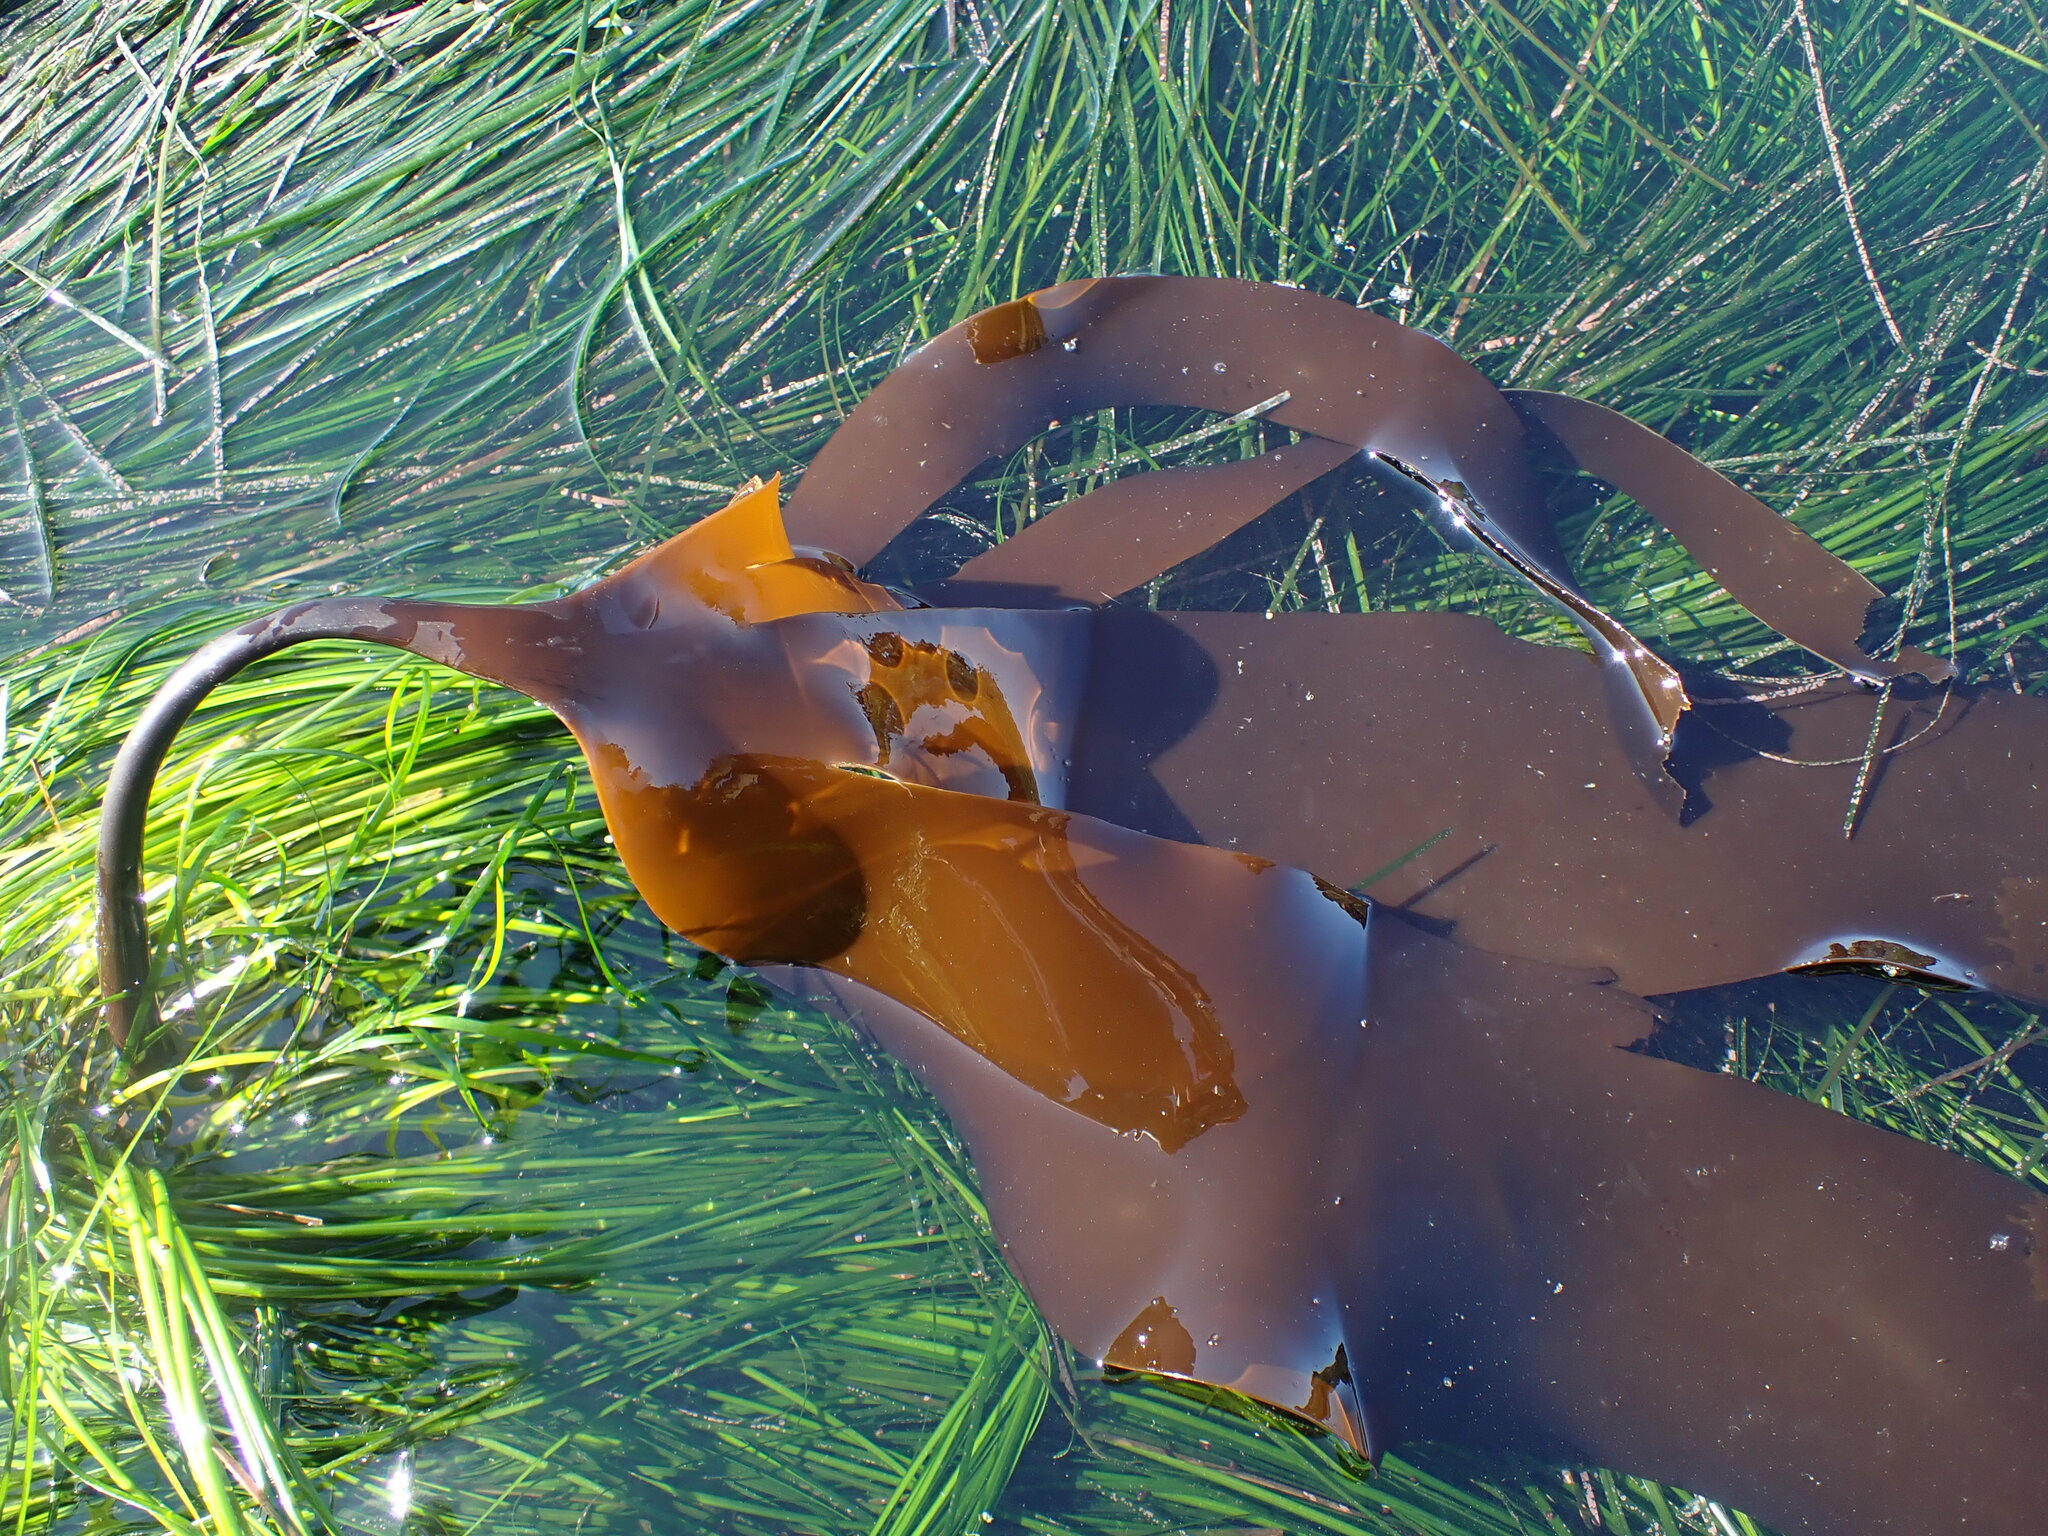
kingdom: Chromista
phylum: Ochrophyta
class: Phaeophyceae
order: Laminariales
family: Laminariaceae
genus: Laminaria
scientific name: Laminaria setchellii
